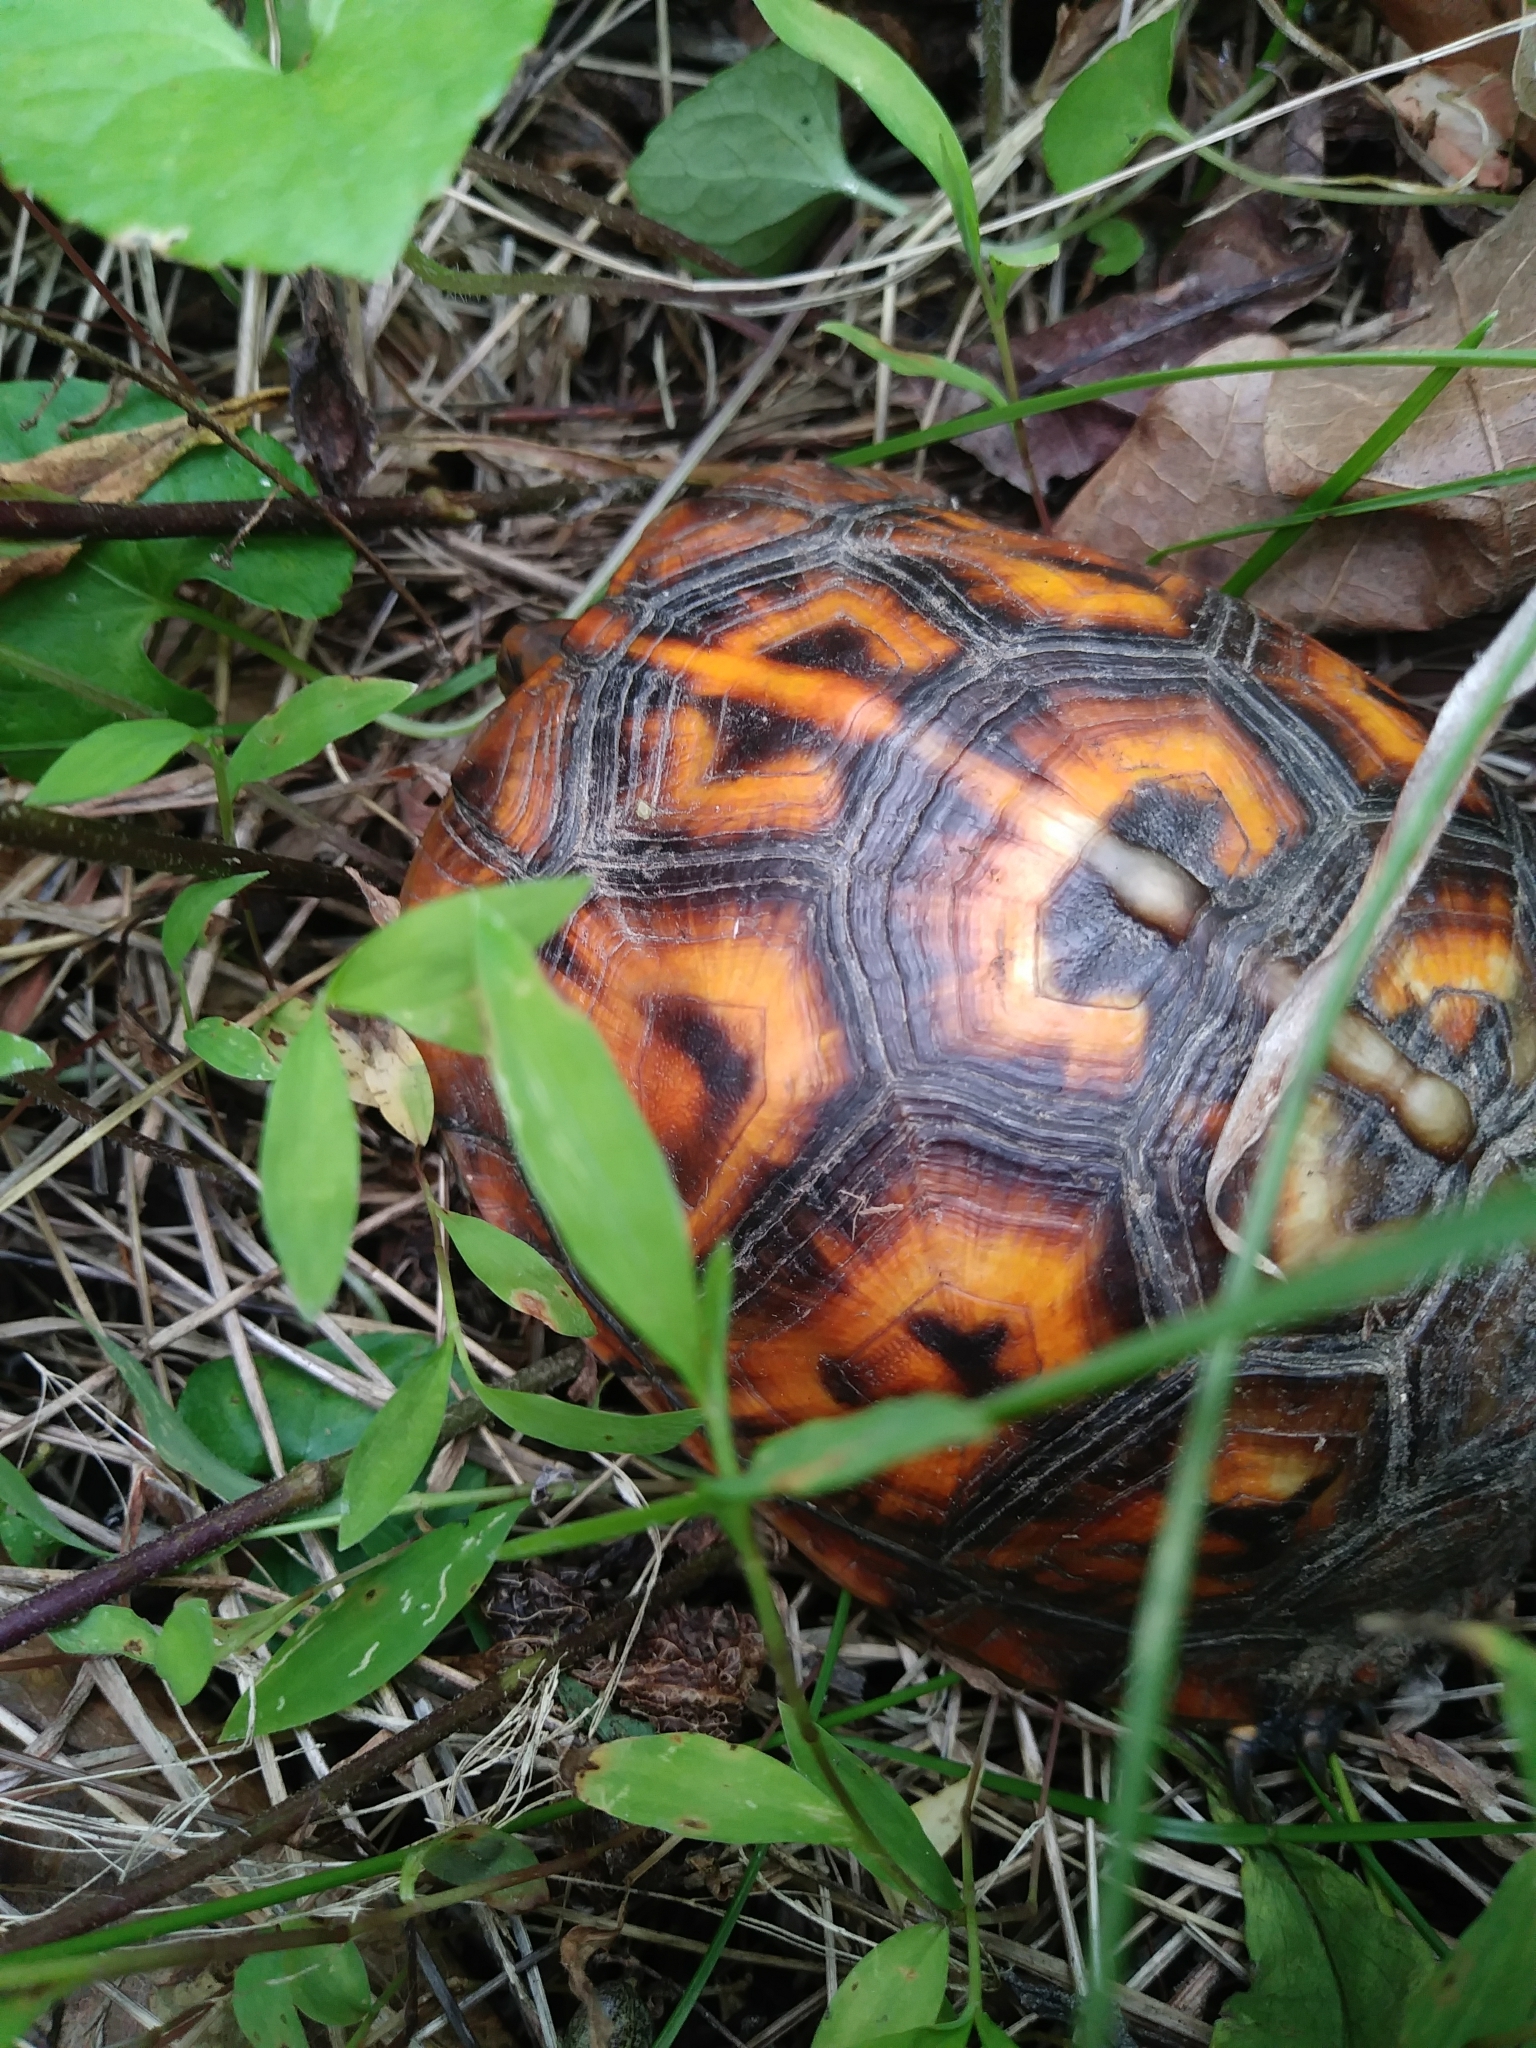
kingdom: Animalia
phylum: Chordata
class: Testudines
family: Emydidae
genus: Terrapene
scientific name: Terrapene carolina
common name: Common box turtle
